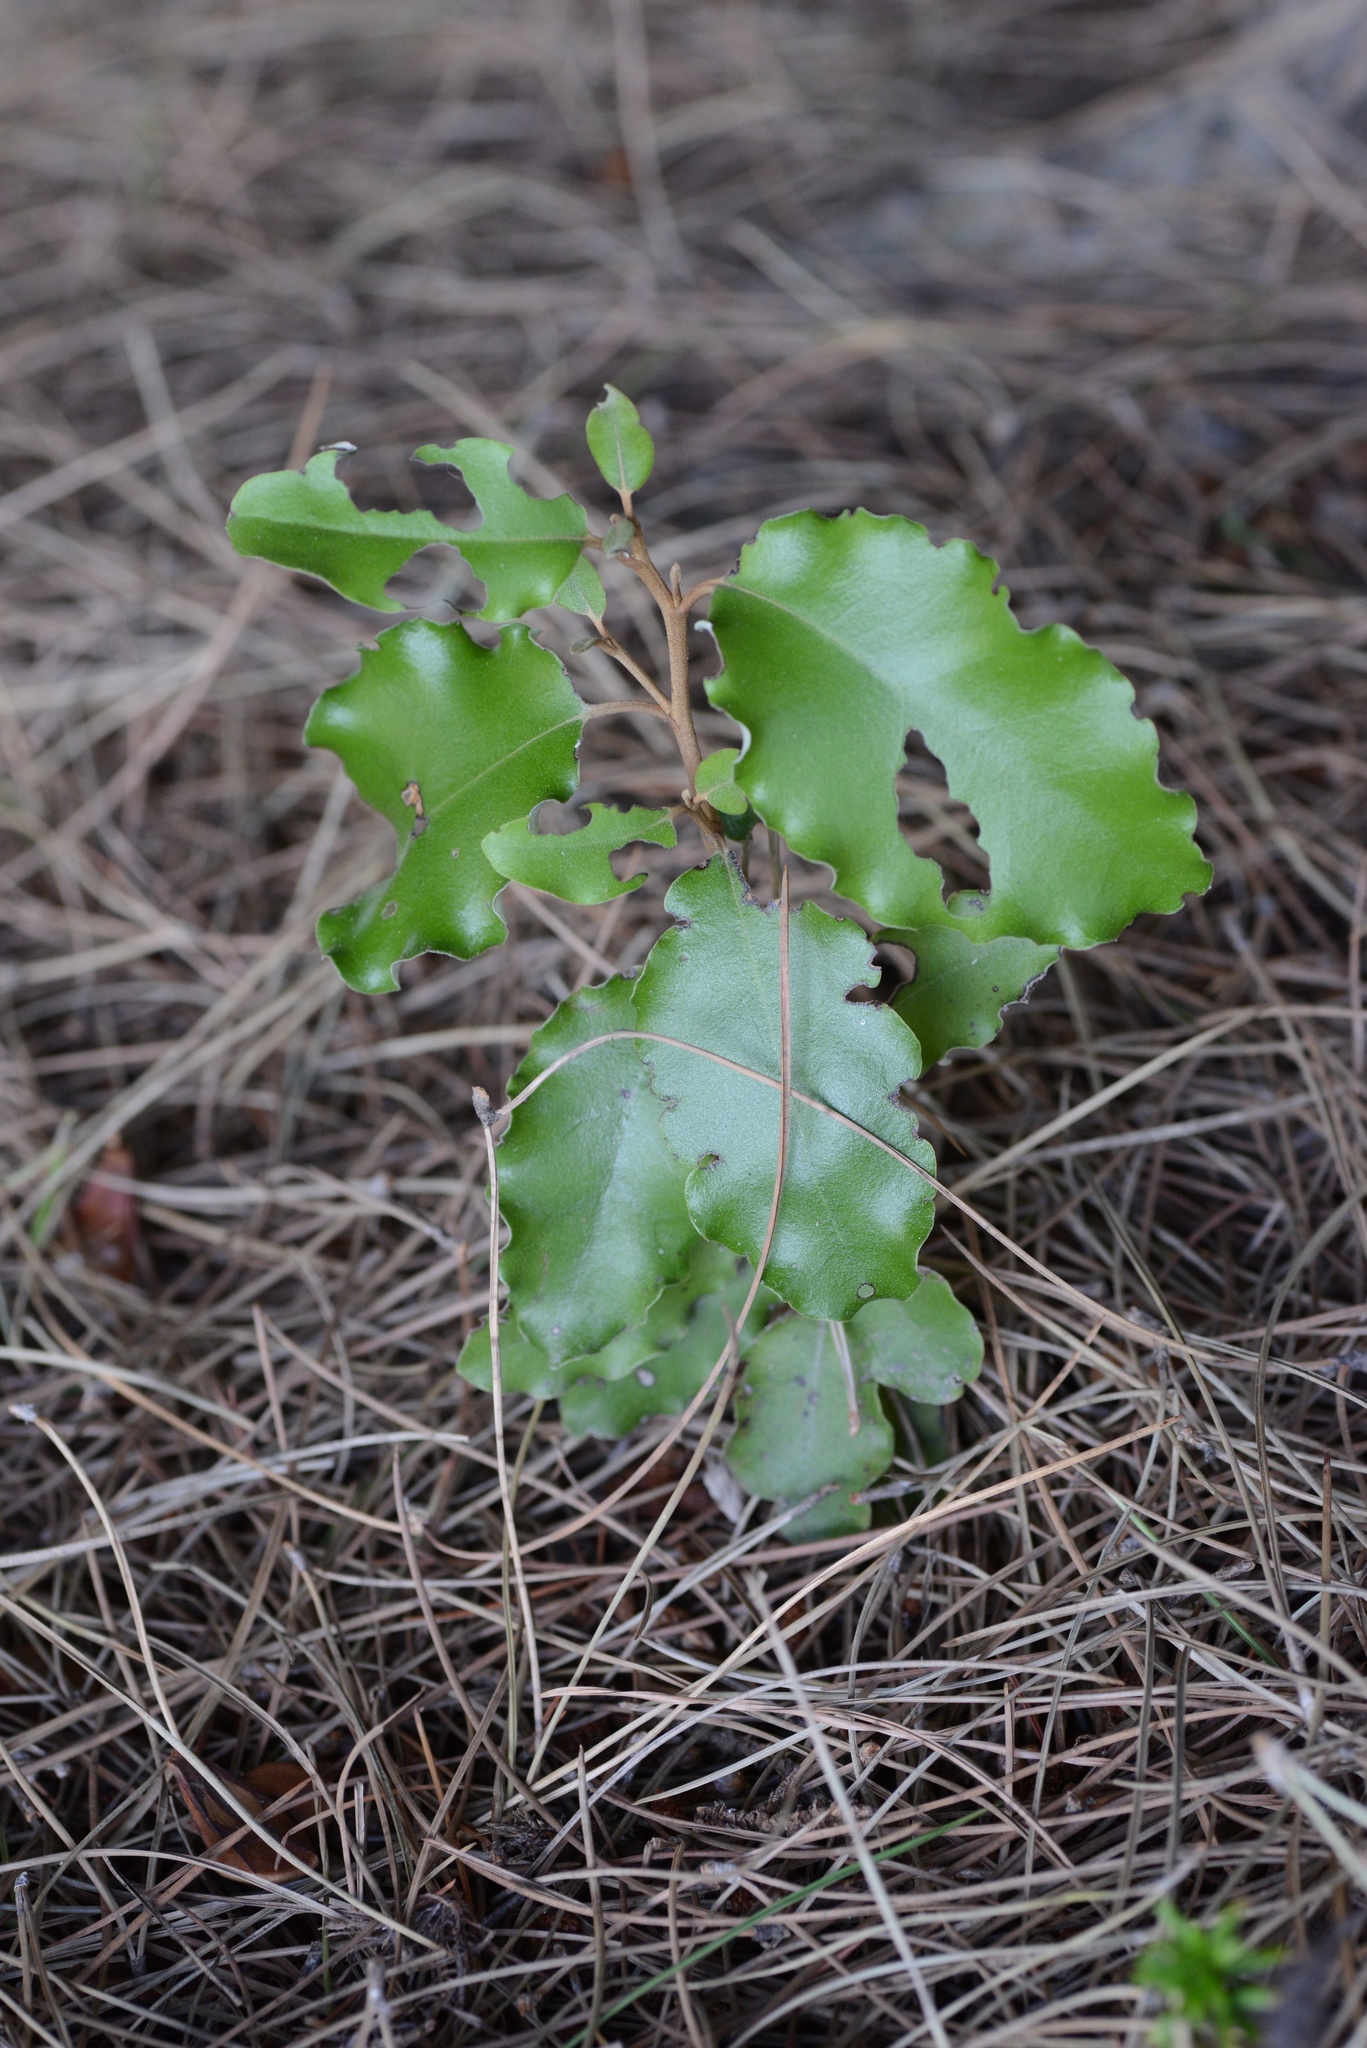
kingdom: Plantae
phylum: Tracheophyta
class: Magnoliopsida
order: Asterales
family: Asteraceae
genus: Olearia
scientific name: Olearia paniculata
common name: Akiraho
